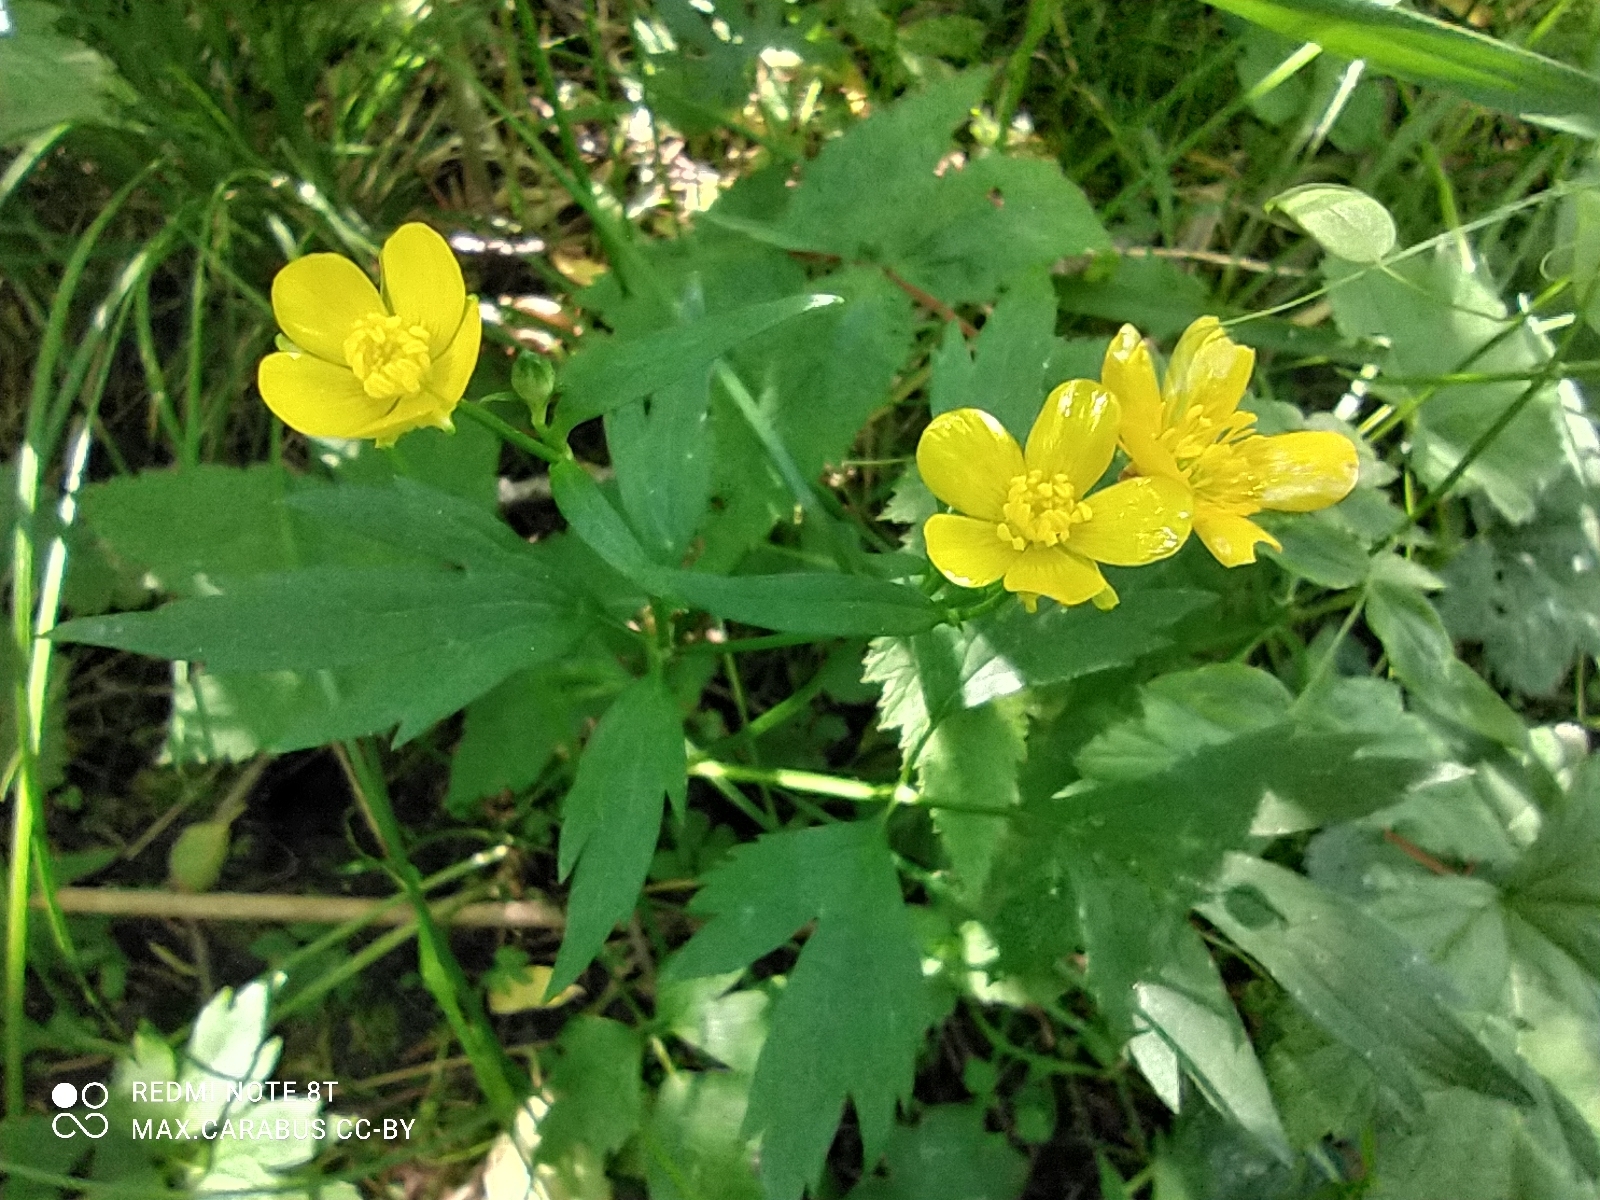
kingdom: Plantae
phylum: Tracheophyta
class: Magnoliopsida
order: Ranunculales
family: Ranunculaceae
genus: Ranunculus
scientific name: Ranunculus repens
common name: Creeping buttercup
